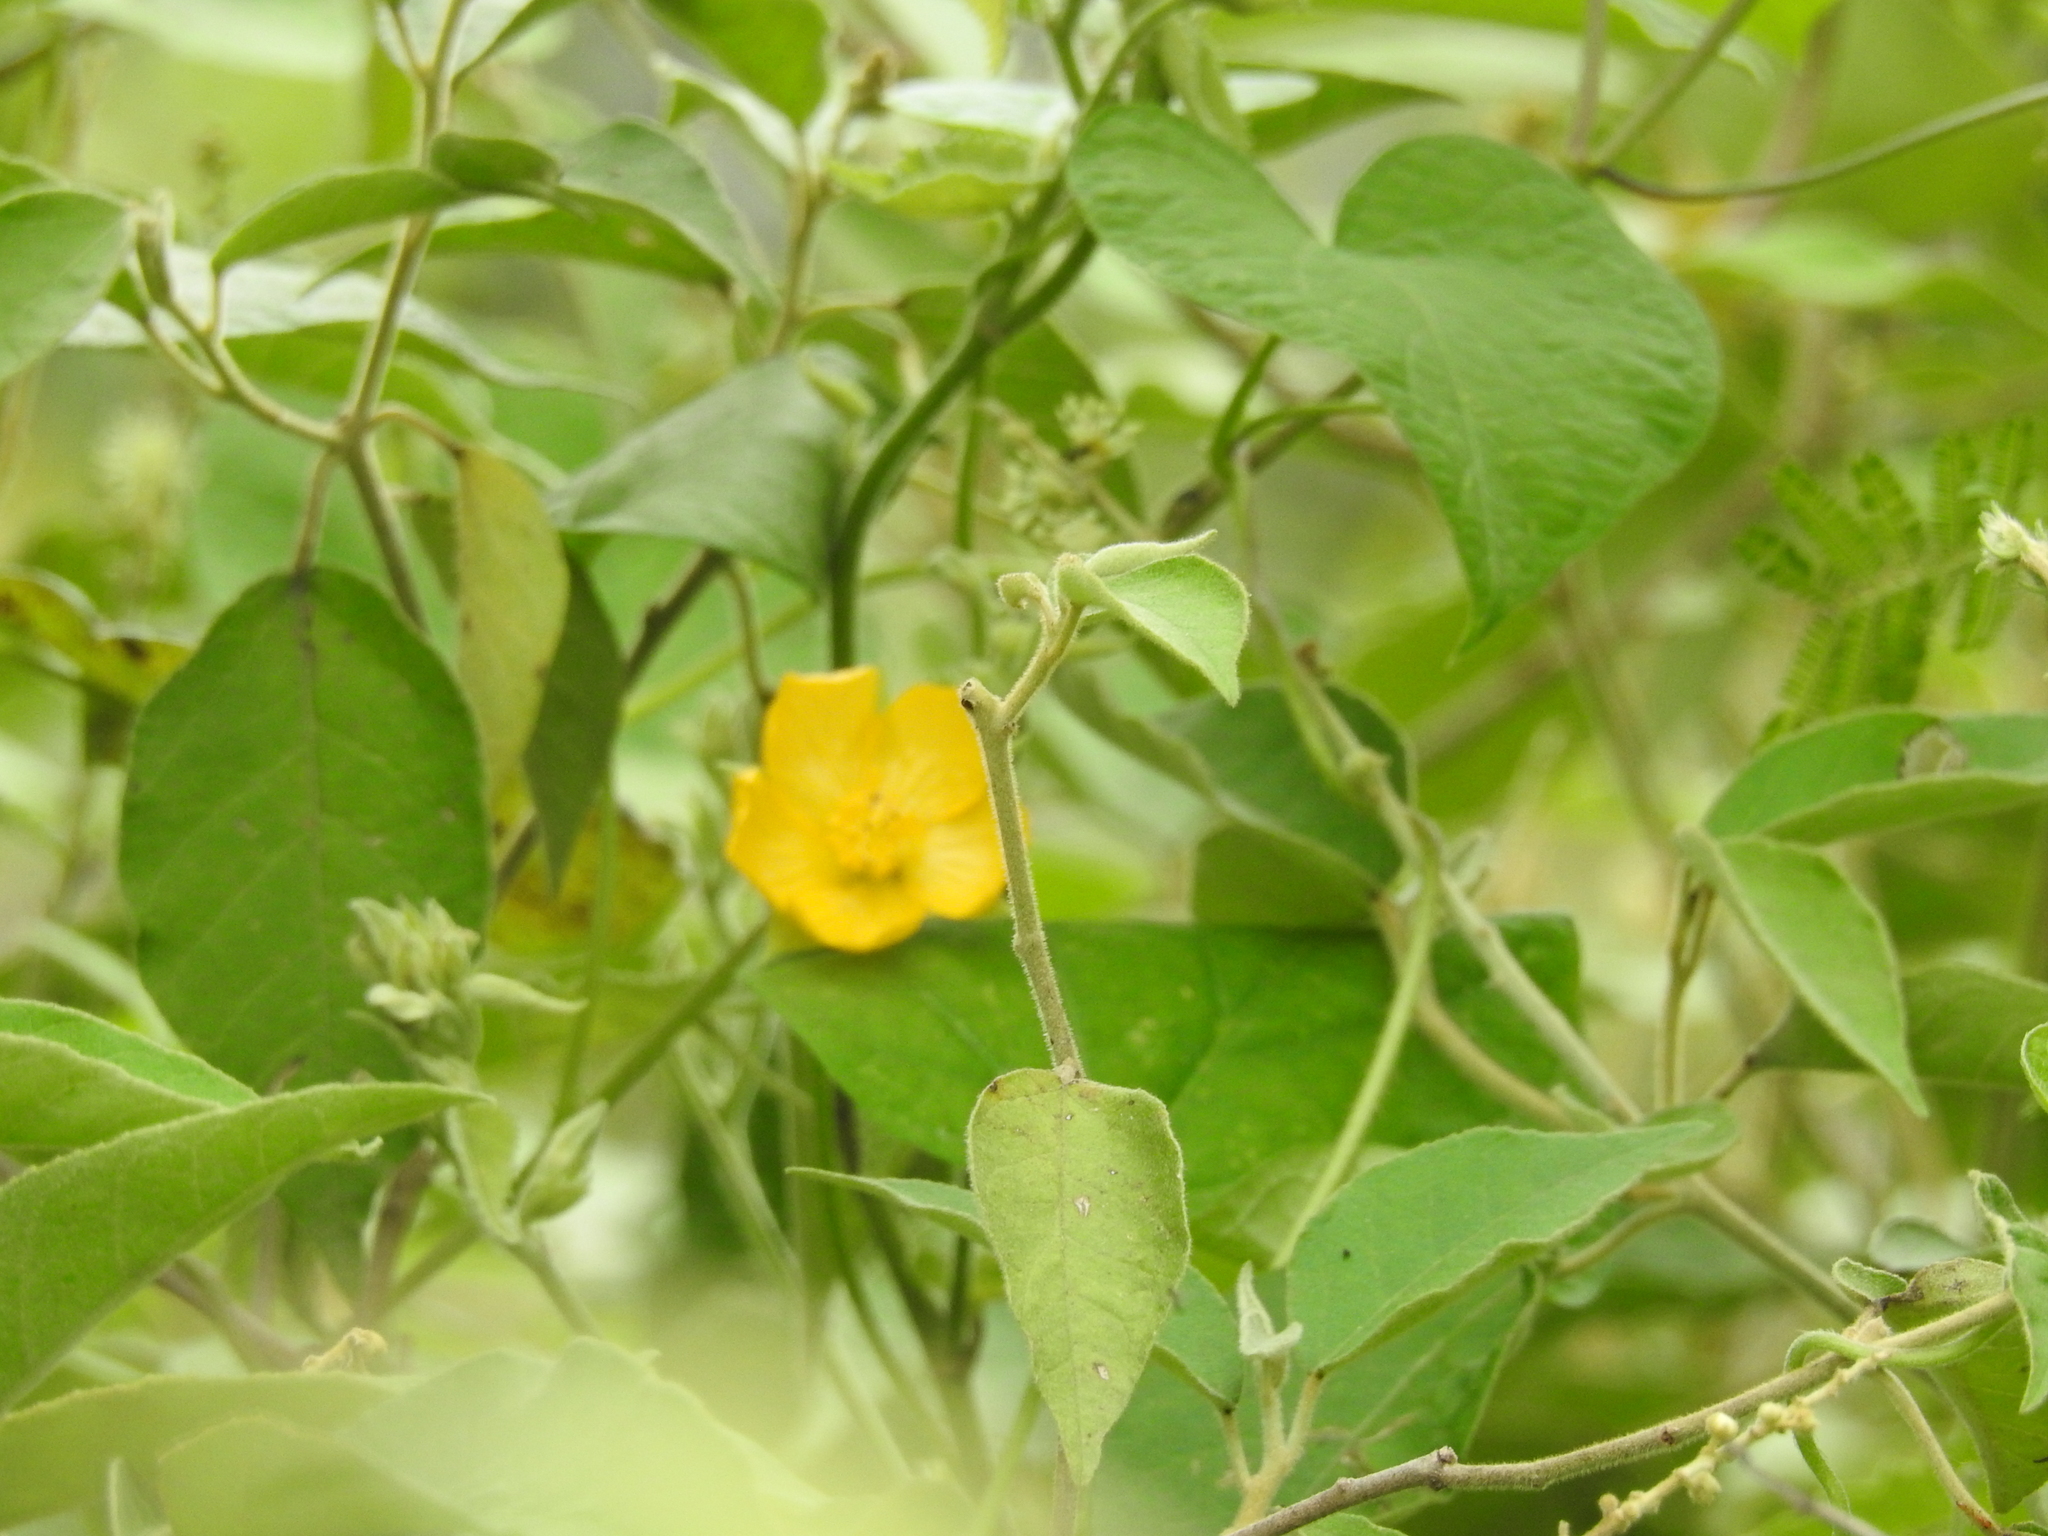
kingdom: Plantae
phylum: Tracheophyta
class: Magnoliopsida
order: Malvales
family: Malvaceae
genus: Wissadula
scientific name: Wissadula gymnanthemum
